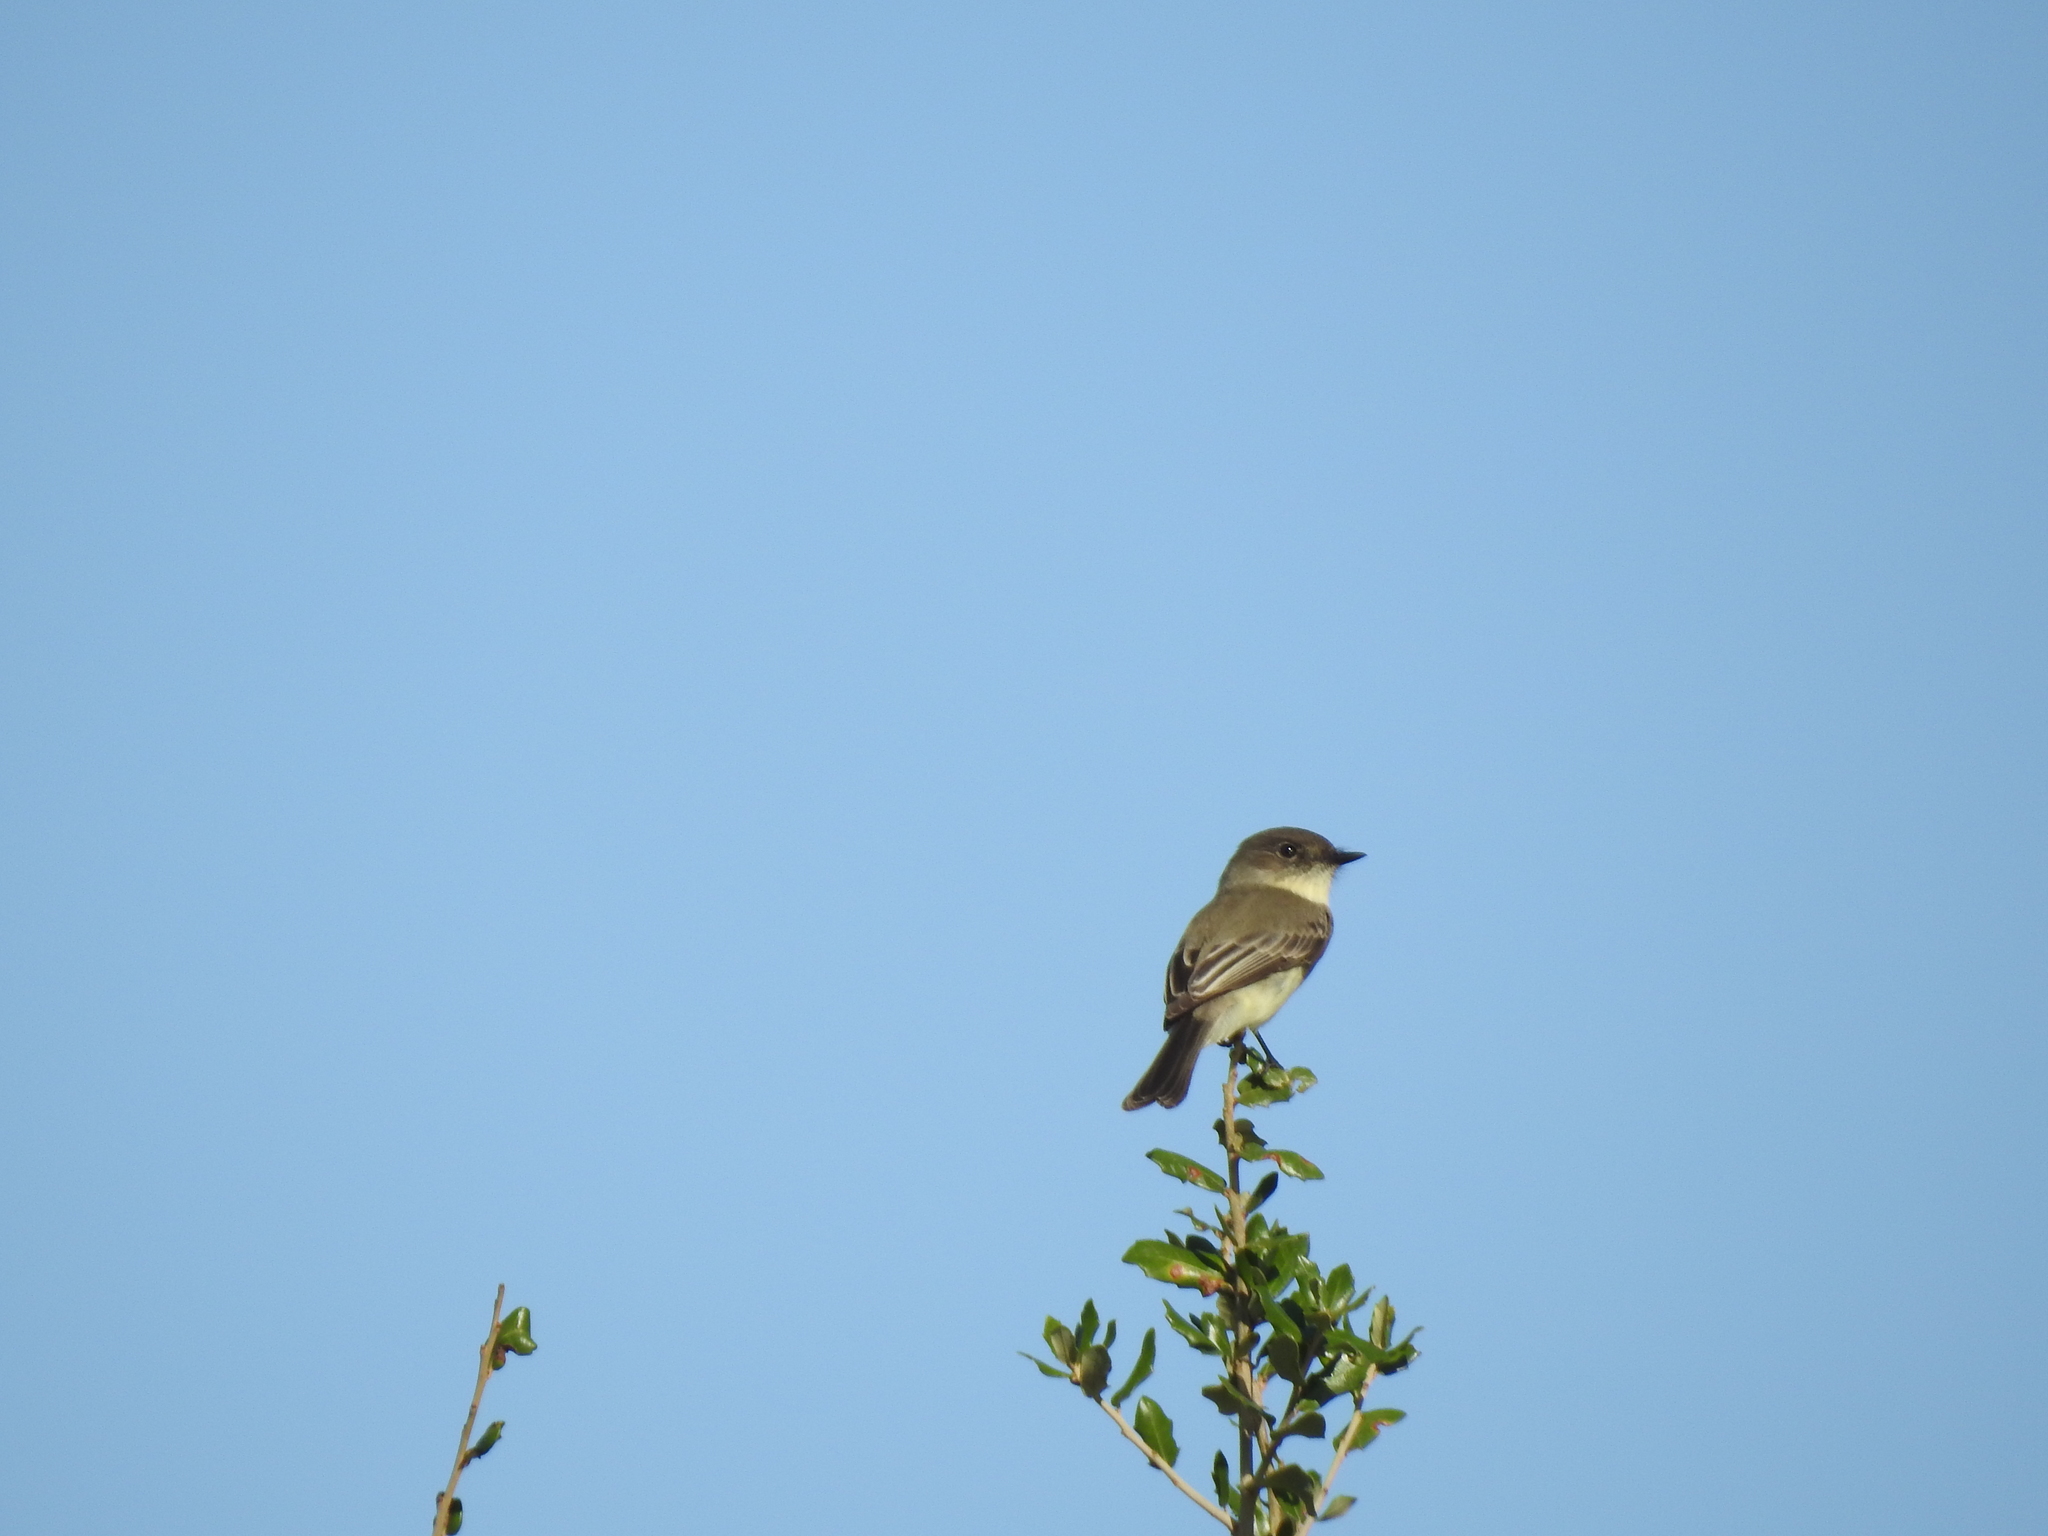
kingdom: Animalia
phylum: Chordata
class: Aves
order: Passeriformes
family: Tyrannidae
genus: Sayornis
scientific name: Sayornis phoebe
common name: Eastern phoebe
